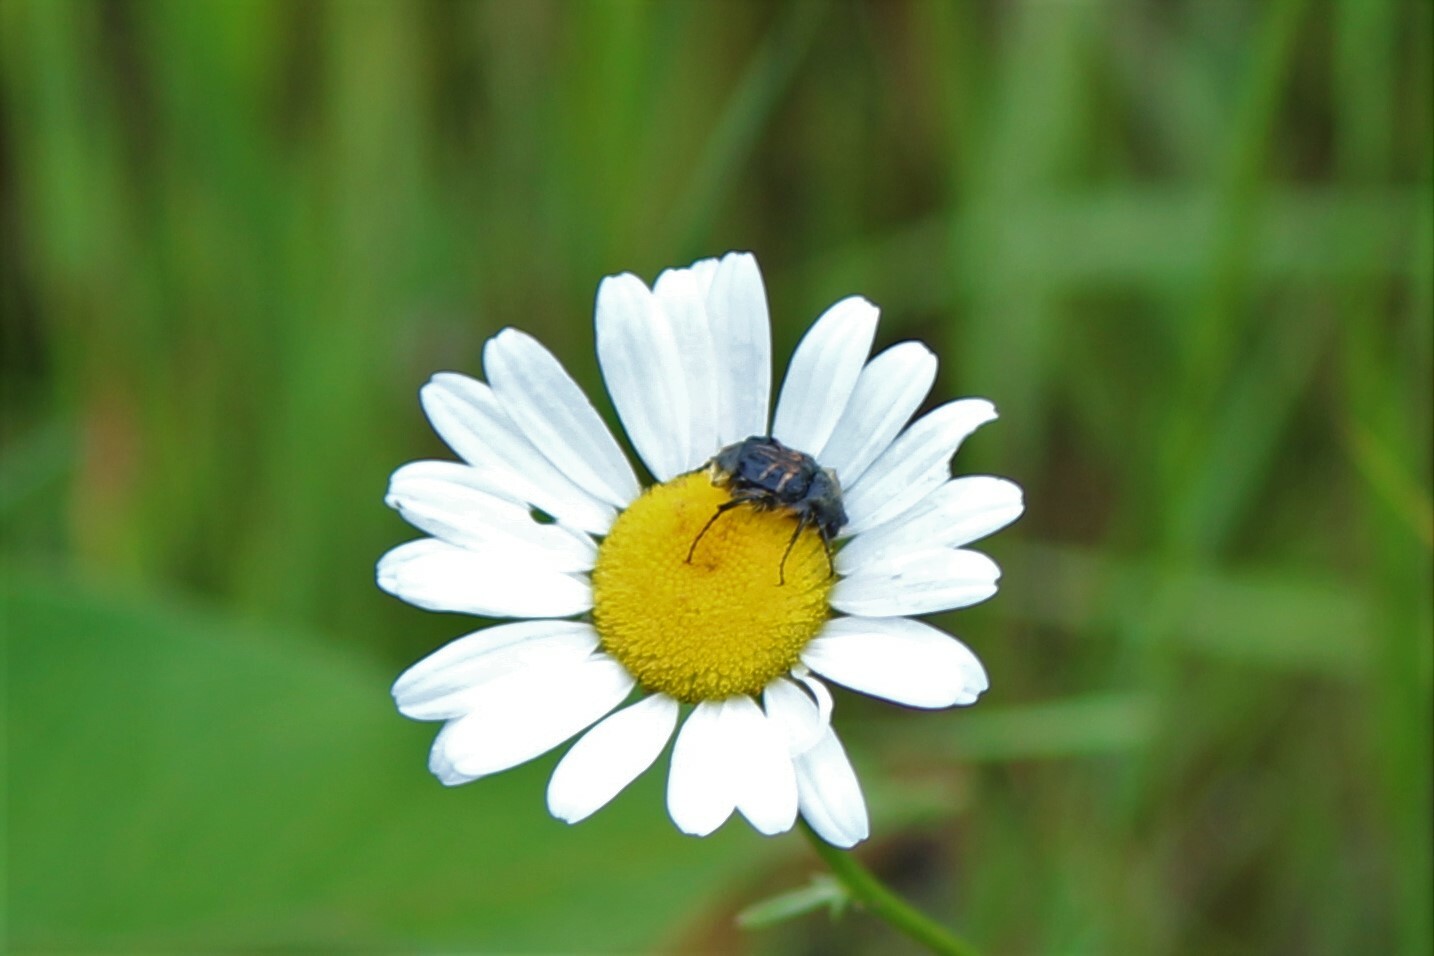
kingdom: Animalia
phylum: Arthropoda
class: Insecta
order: Coleoptera
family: Scarabaeidae
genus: Trichiotinus
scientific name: Trichiotinus assimilis
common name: Bee-mimic beetle
